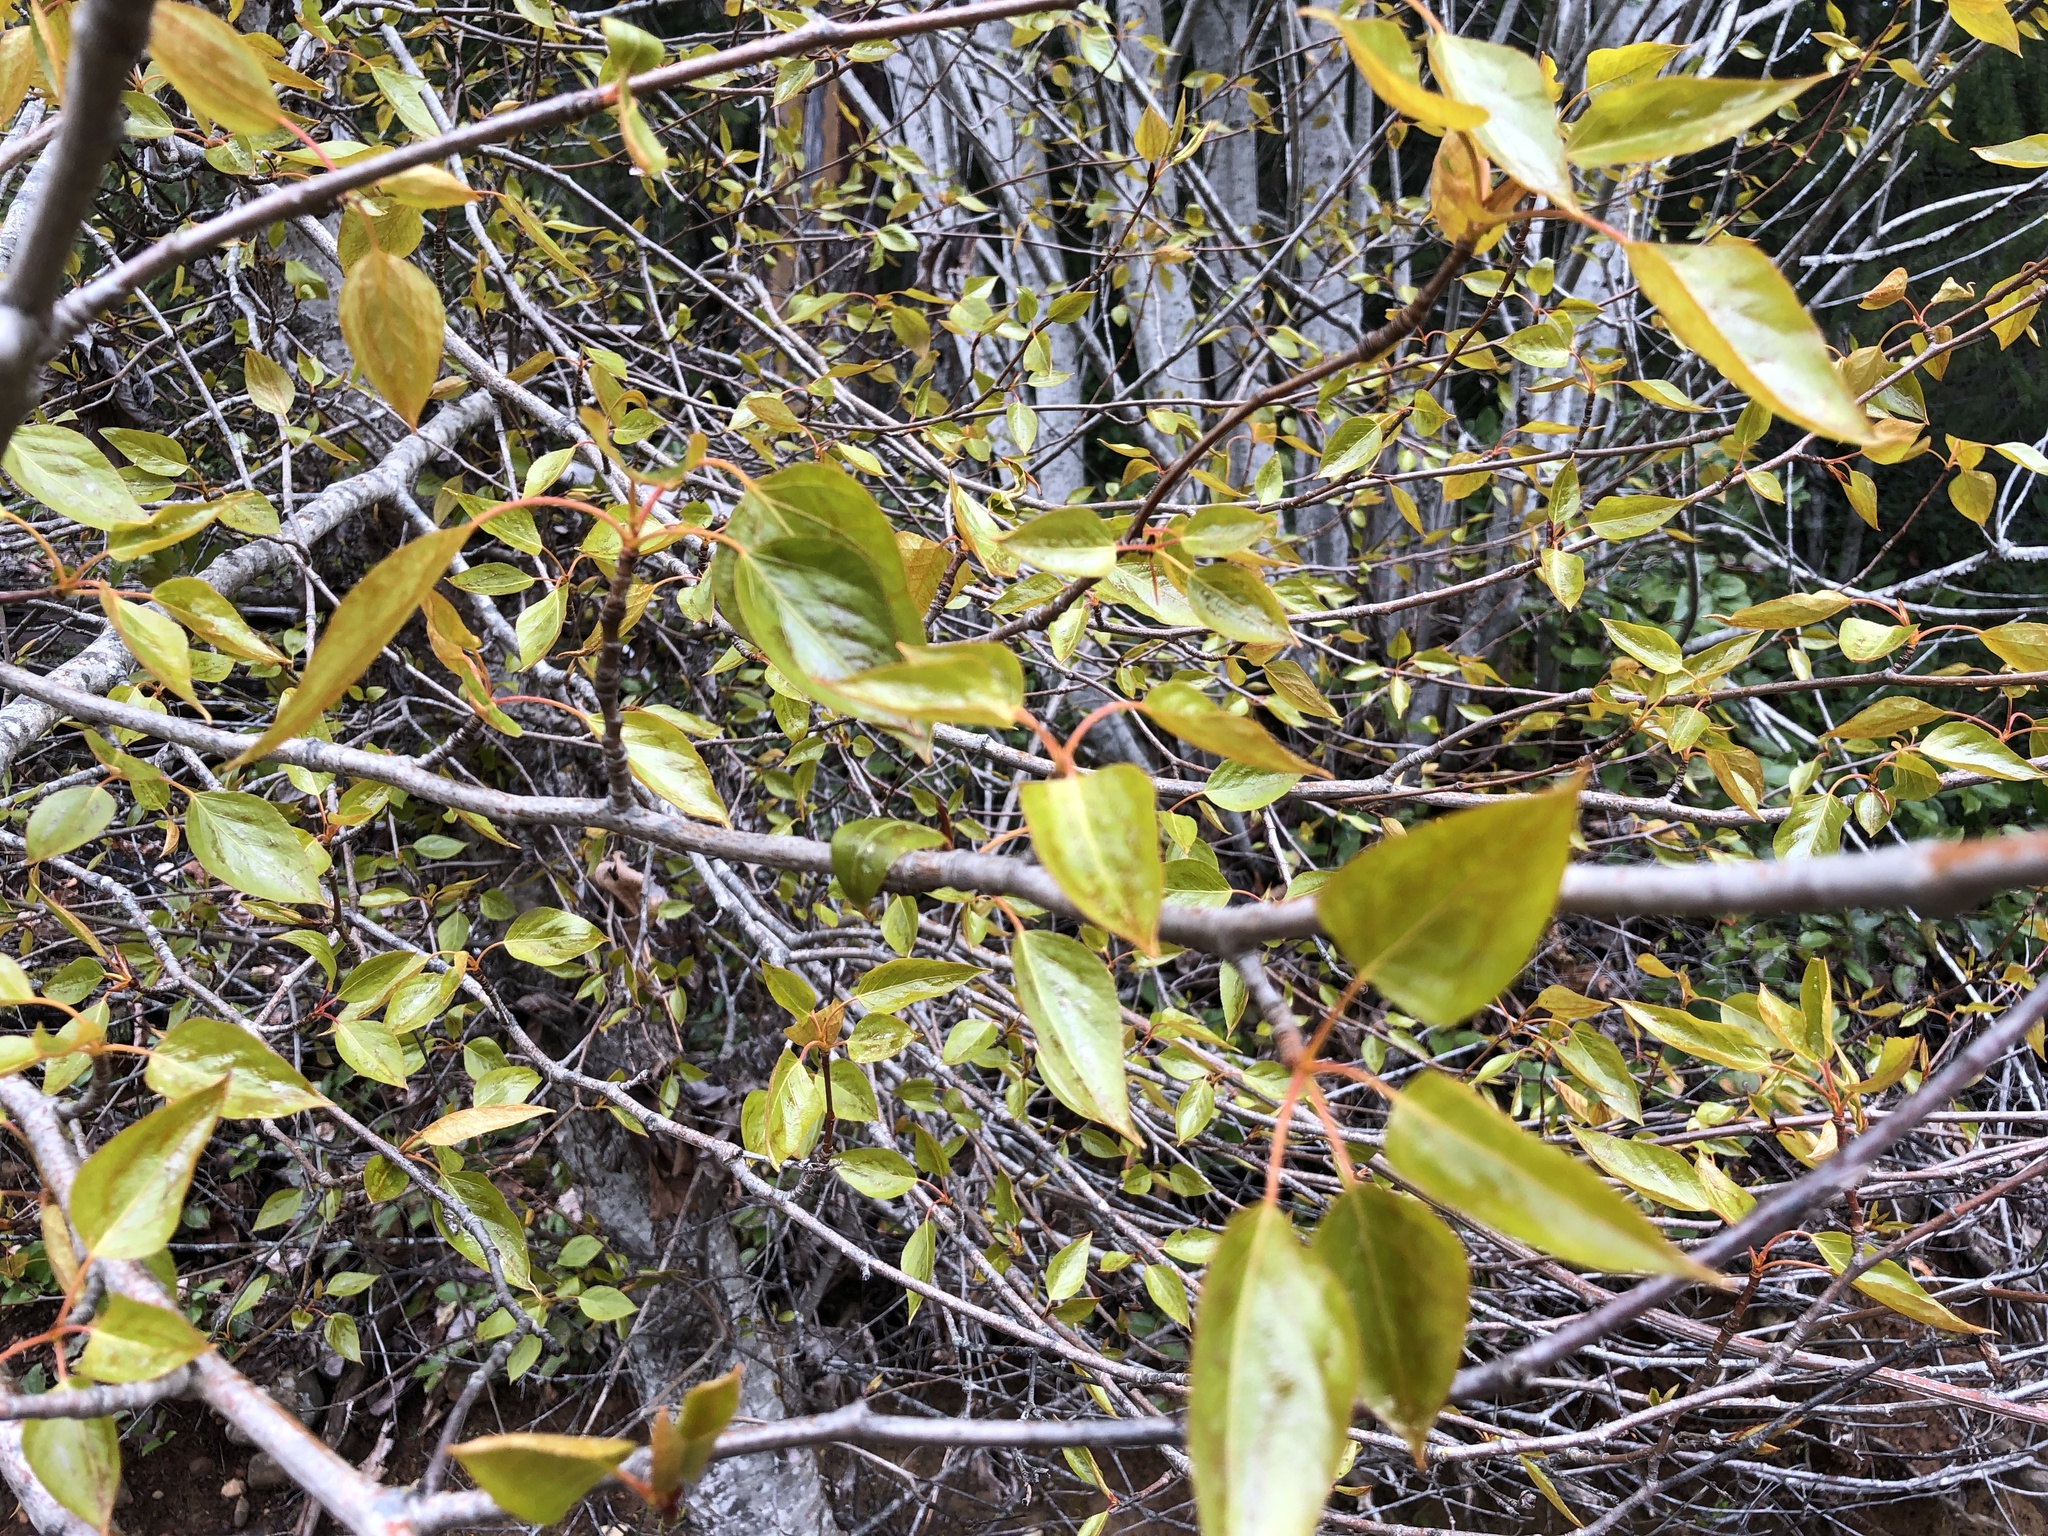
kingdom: Plantae
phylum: Tracheophyta
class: Magnoliopsida
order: Malpighiales
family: Salicaceae
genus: Populus
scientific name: Populus trichocarpa
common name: Black cottonwood
